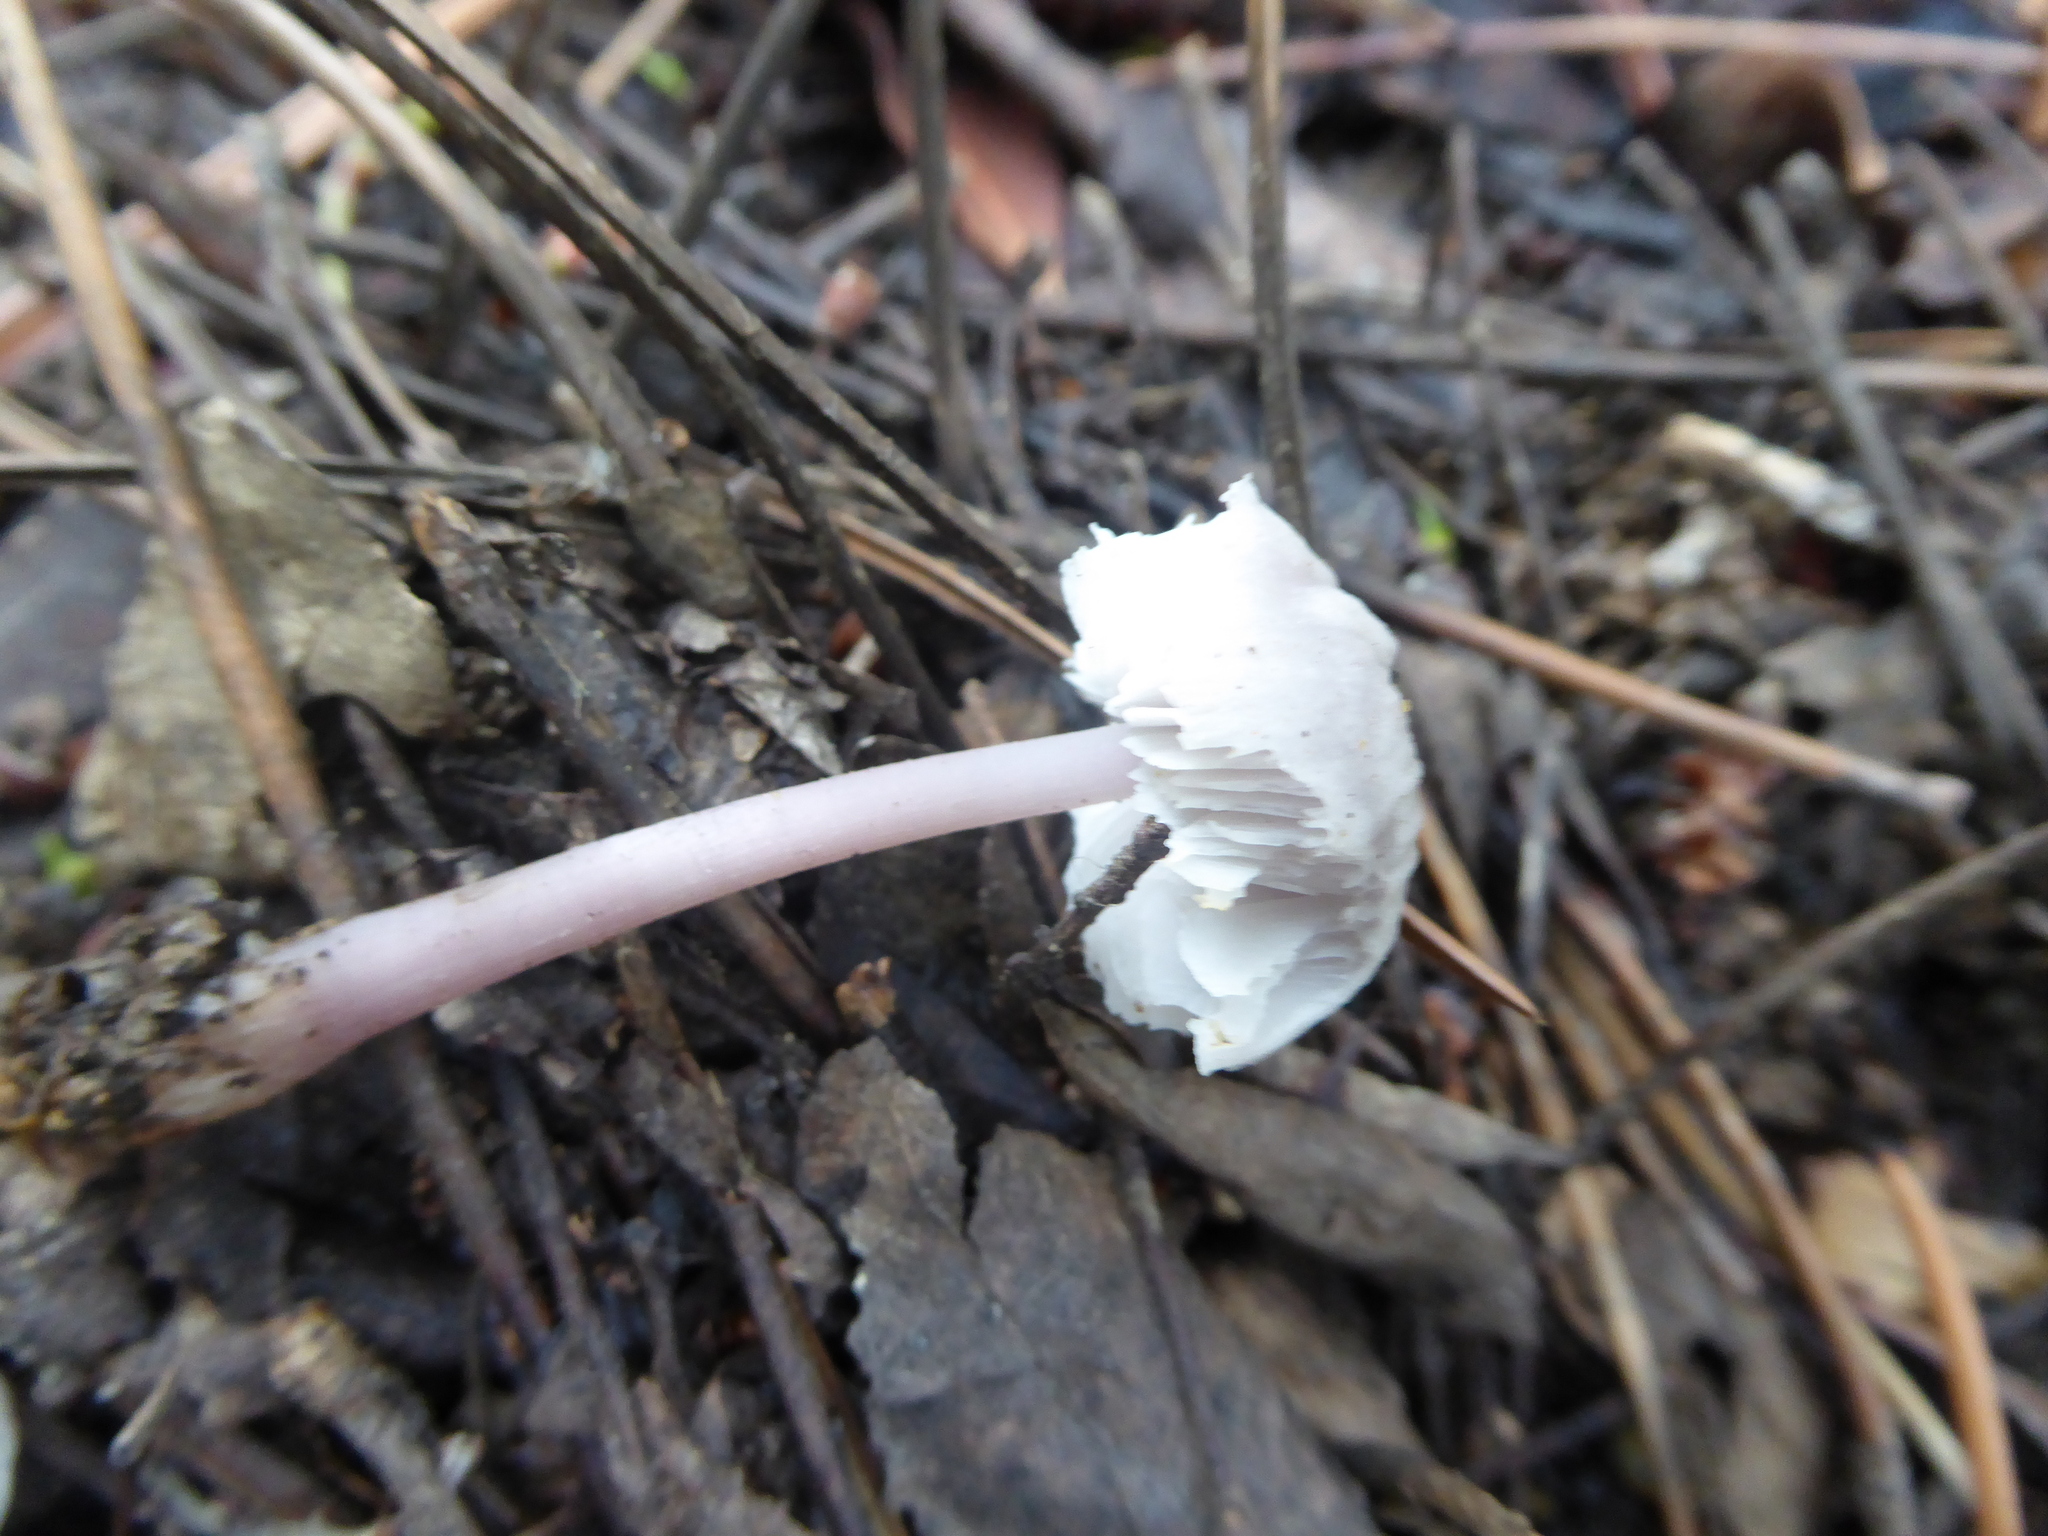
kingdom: Fungi
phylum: Basidiomycota
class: Agaricomycetes
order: Agaricales
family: Mycenaceae
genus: Mycena
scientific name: Mycena pura
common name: Lilac bonnet
